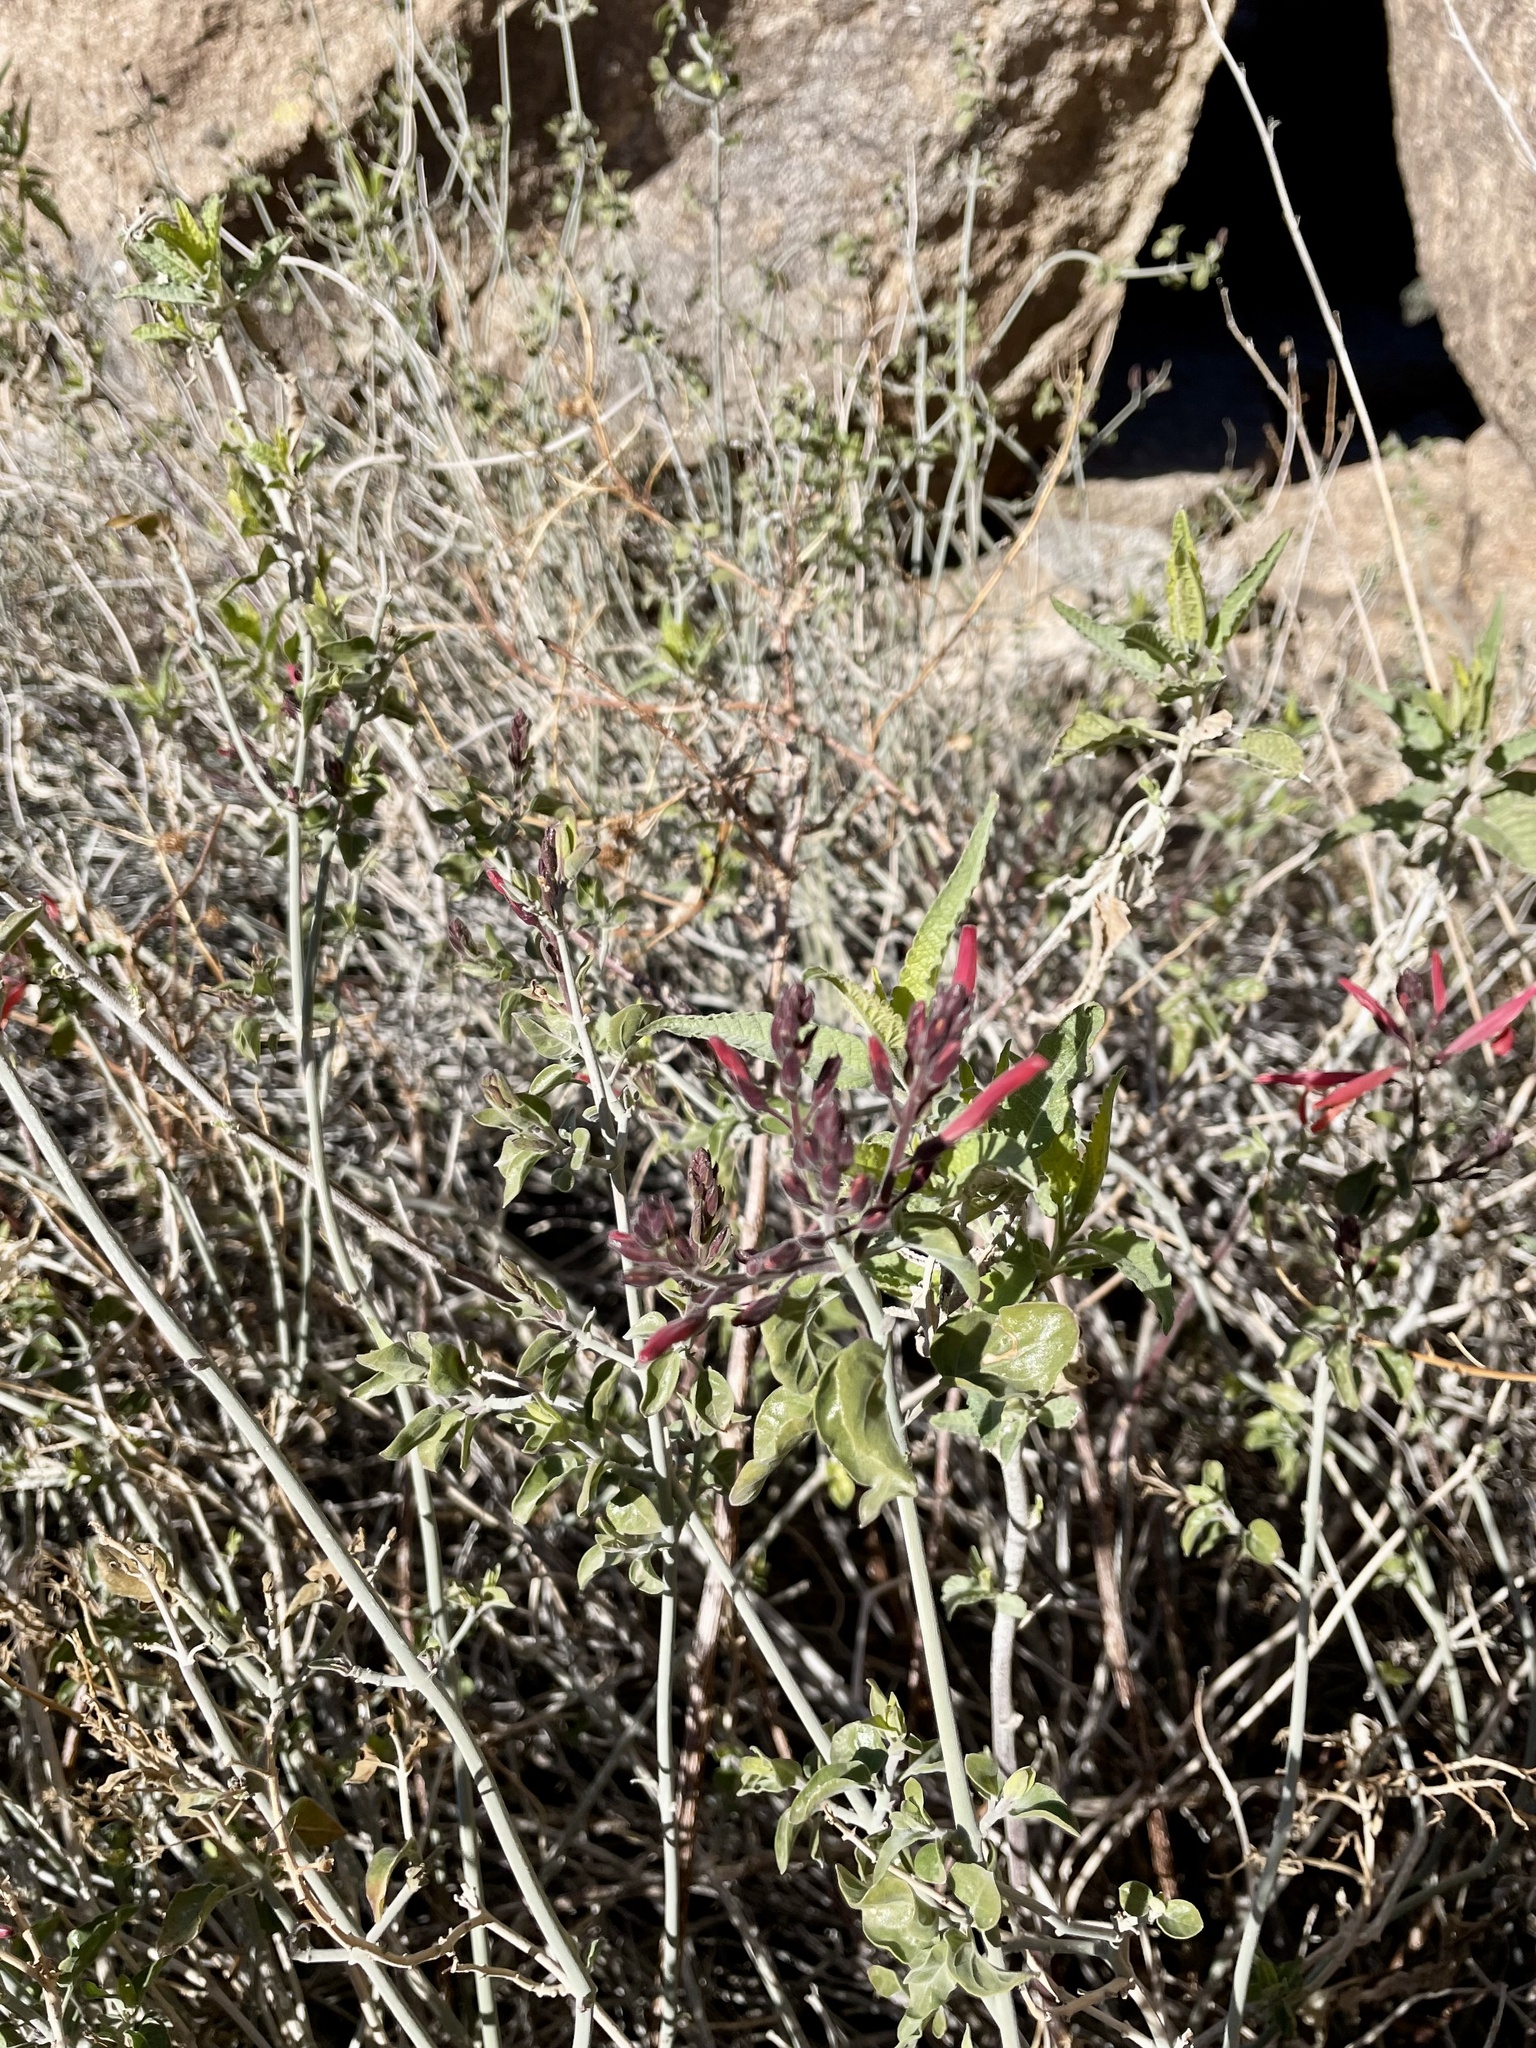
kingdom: Plantae
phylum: Tracheophyta
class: Magnoliopsida
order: Lamiales
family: Acanthaceae
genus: Justicia
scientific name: Justicia californica
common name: Chuparosa-honeysuckle
